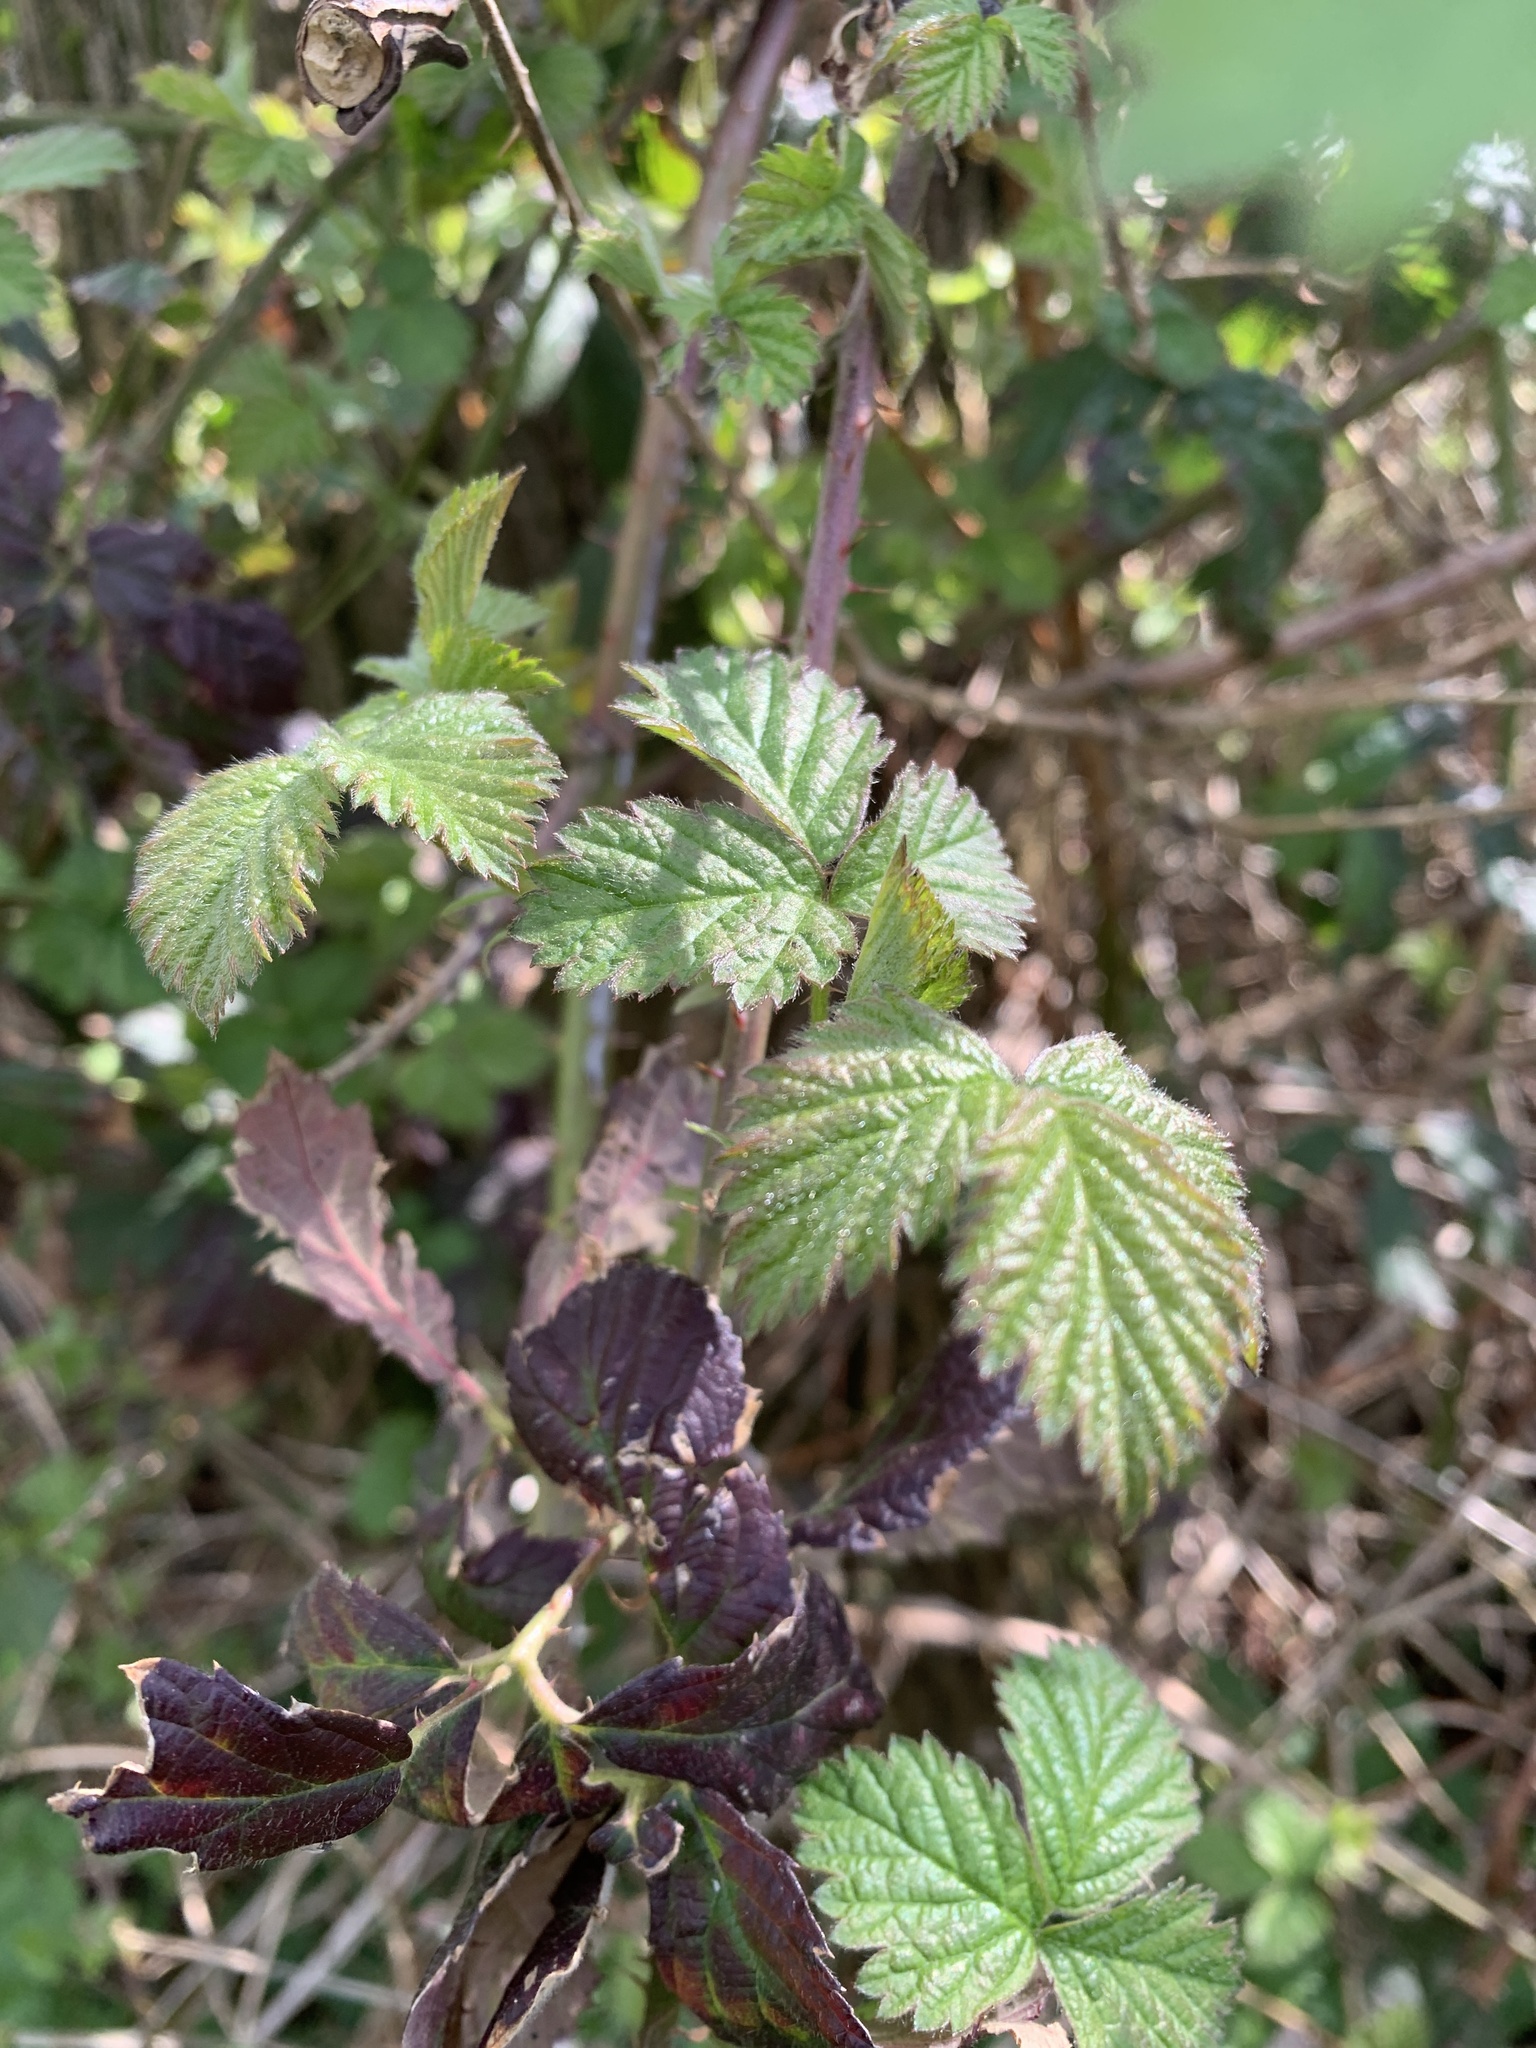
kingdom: Plantae
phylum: Tracheophyta
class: Magnoliopsida
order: Rosales
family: Rosaceae
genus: Rubus
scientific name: Rubus fruticosus
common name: Blackberry, bramble
